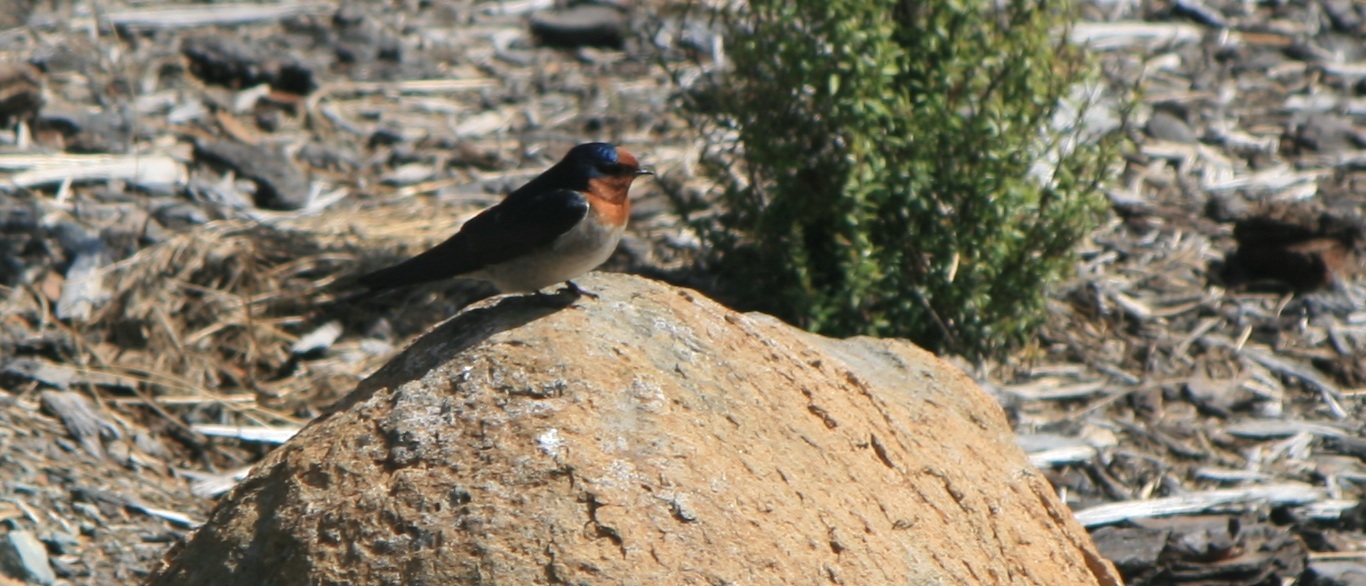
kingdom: Animalia
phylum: Chordata
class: Aves
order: Passeriformes
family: Hirundinidae
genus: Hirundo
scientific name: Hirundo neoxena
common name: Welcome swallow
